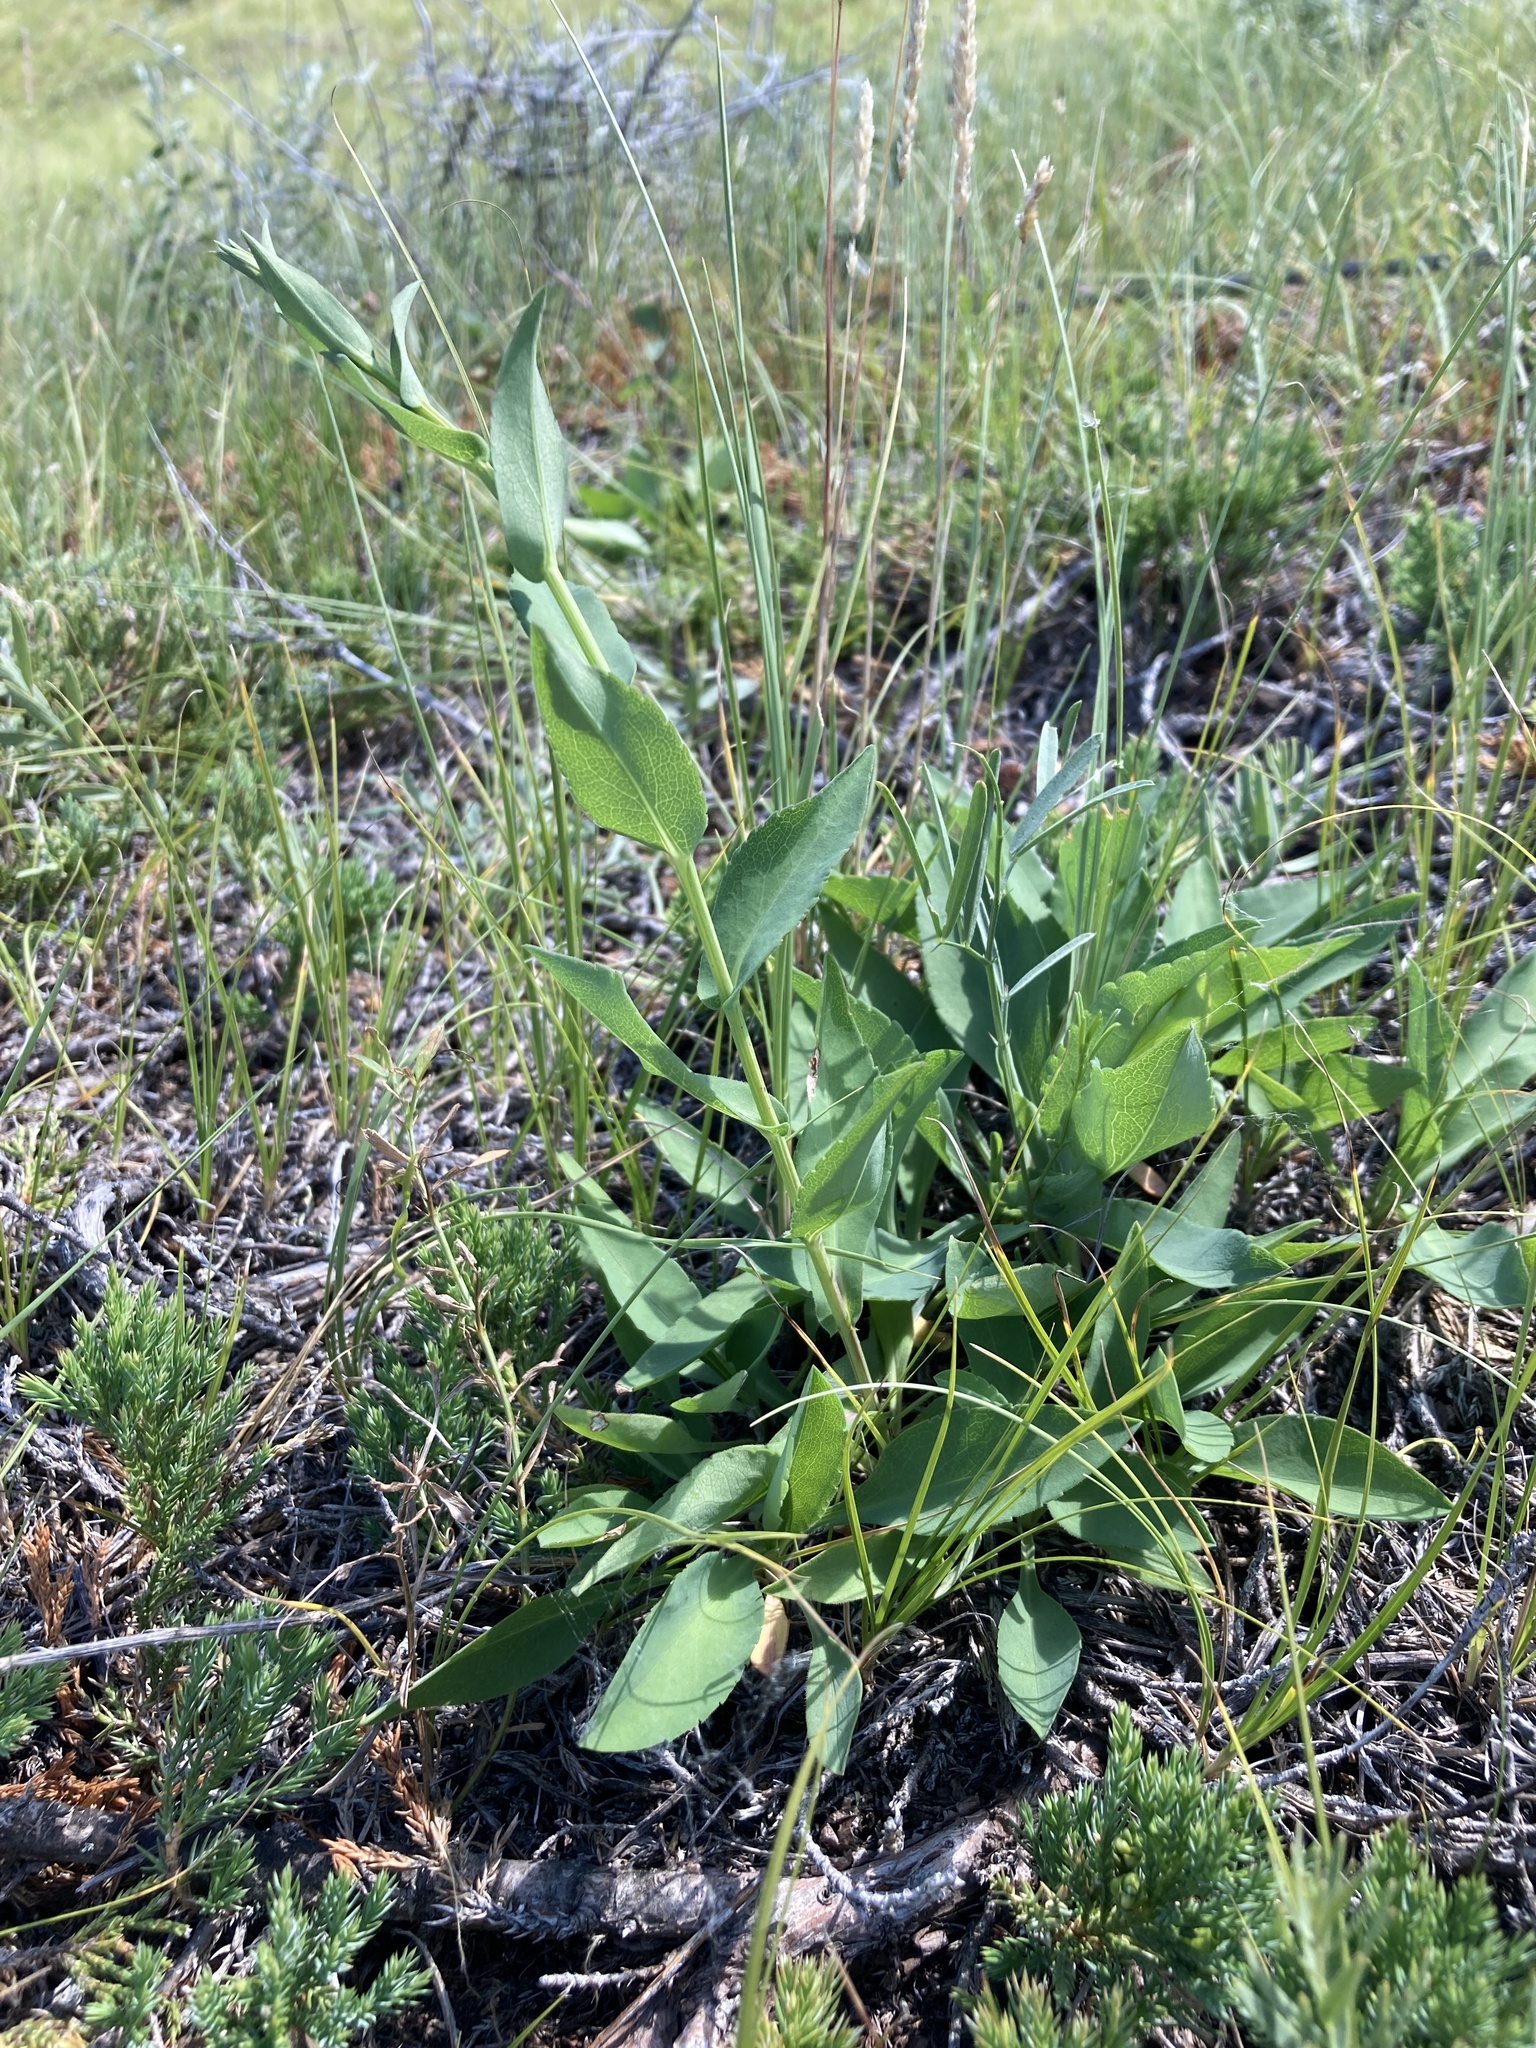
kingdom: Plantae
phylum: Tracheophyta
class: Magnoliopsida
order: Asterales
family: Asteraceae
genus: Symphyotrichum
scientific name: Symphyotrichum laeve
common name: Glaucous aster
